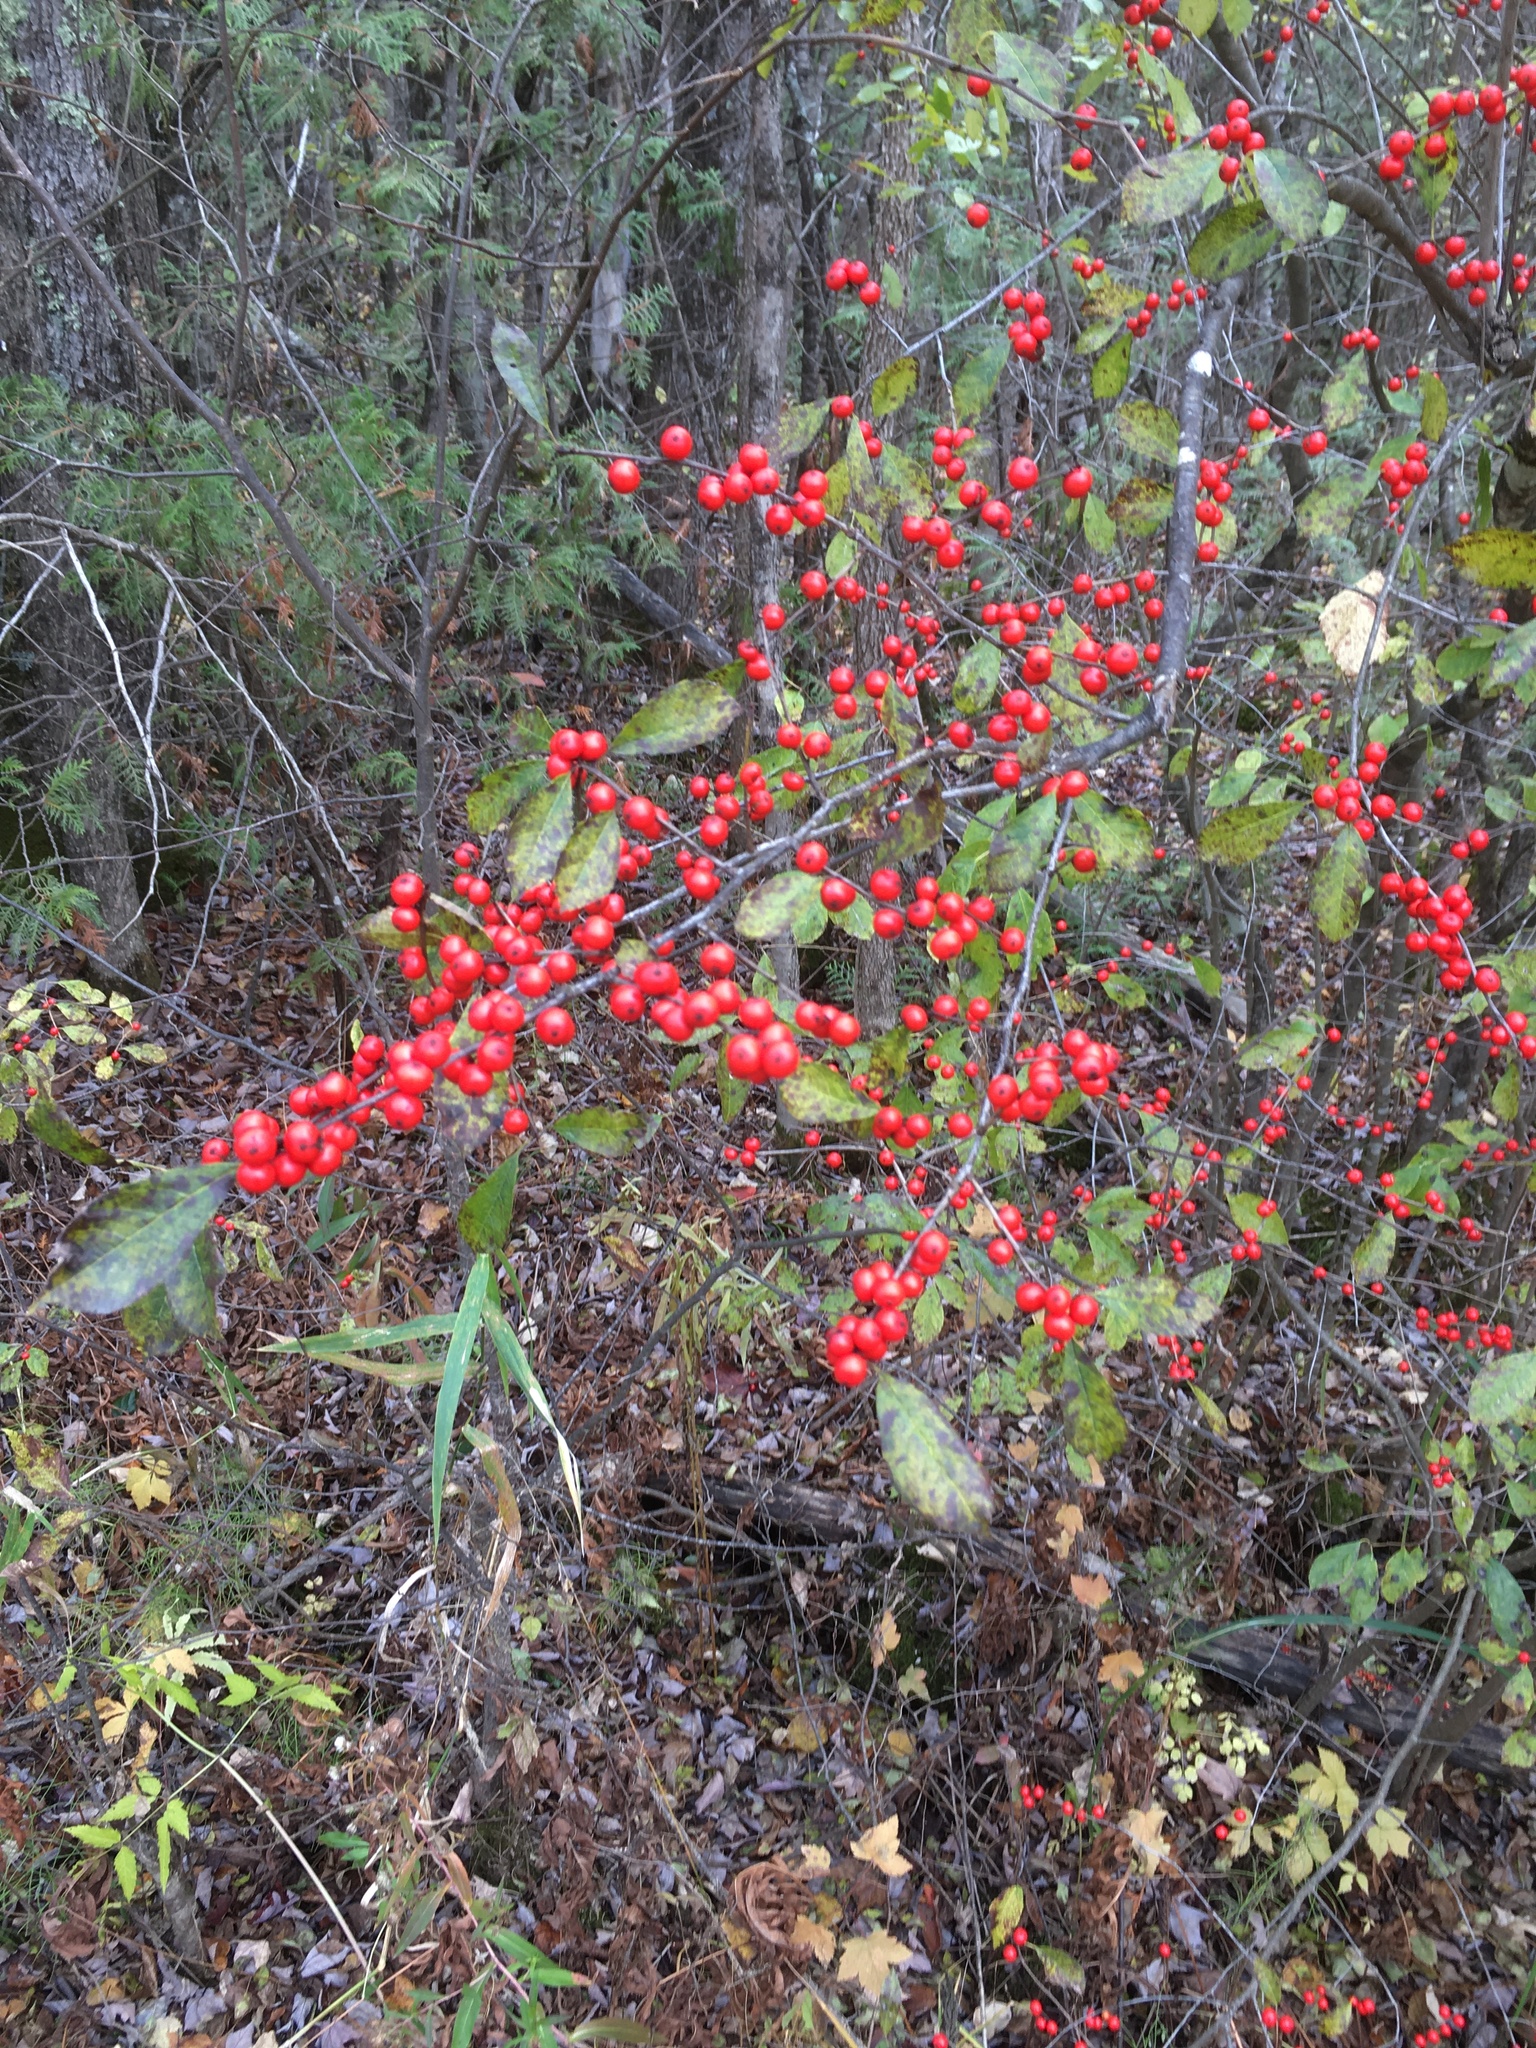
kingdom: Plantae
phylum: Tracheophyta
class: Magnoliopsida
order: Aquifoliales
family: Aquifoliaceae
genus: Ilex
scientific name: Ilex verticillata
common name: Virginia winterberry
